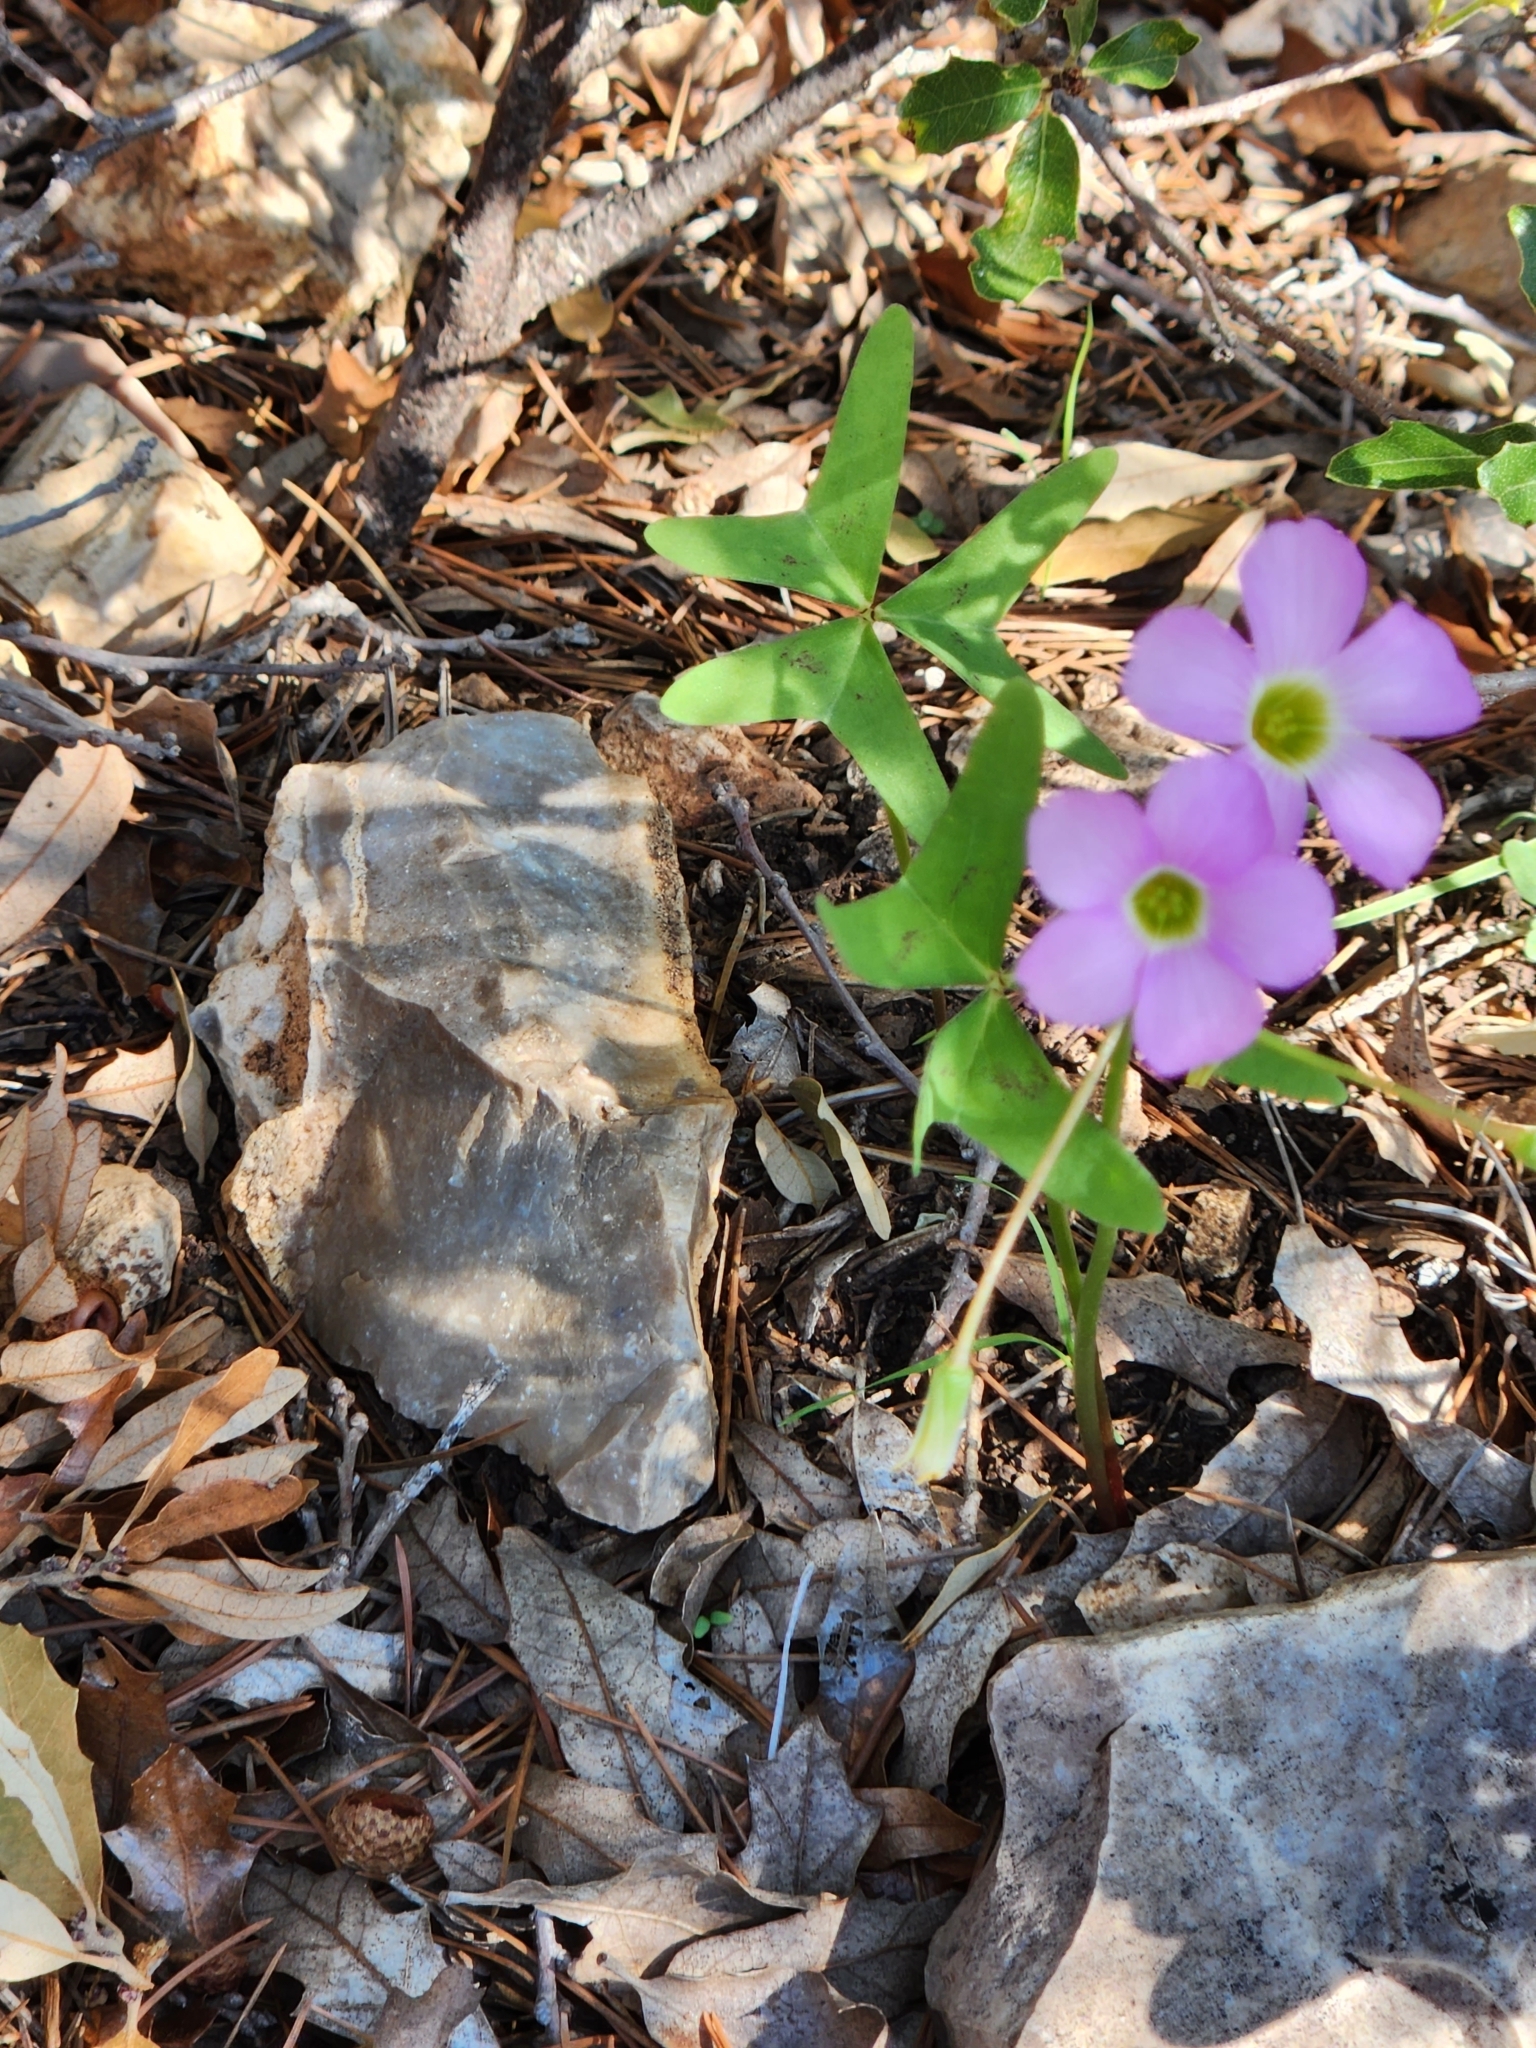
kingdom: Plantae
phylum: Tracheophyta
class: Magnoliopsida
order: Oxalidales
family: Oxalidaceae
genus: Oxalis
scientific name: Oxalis drummondii
